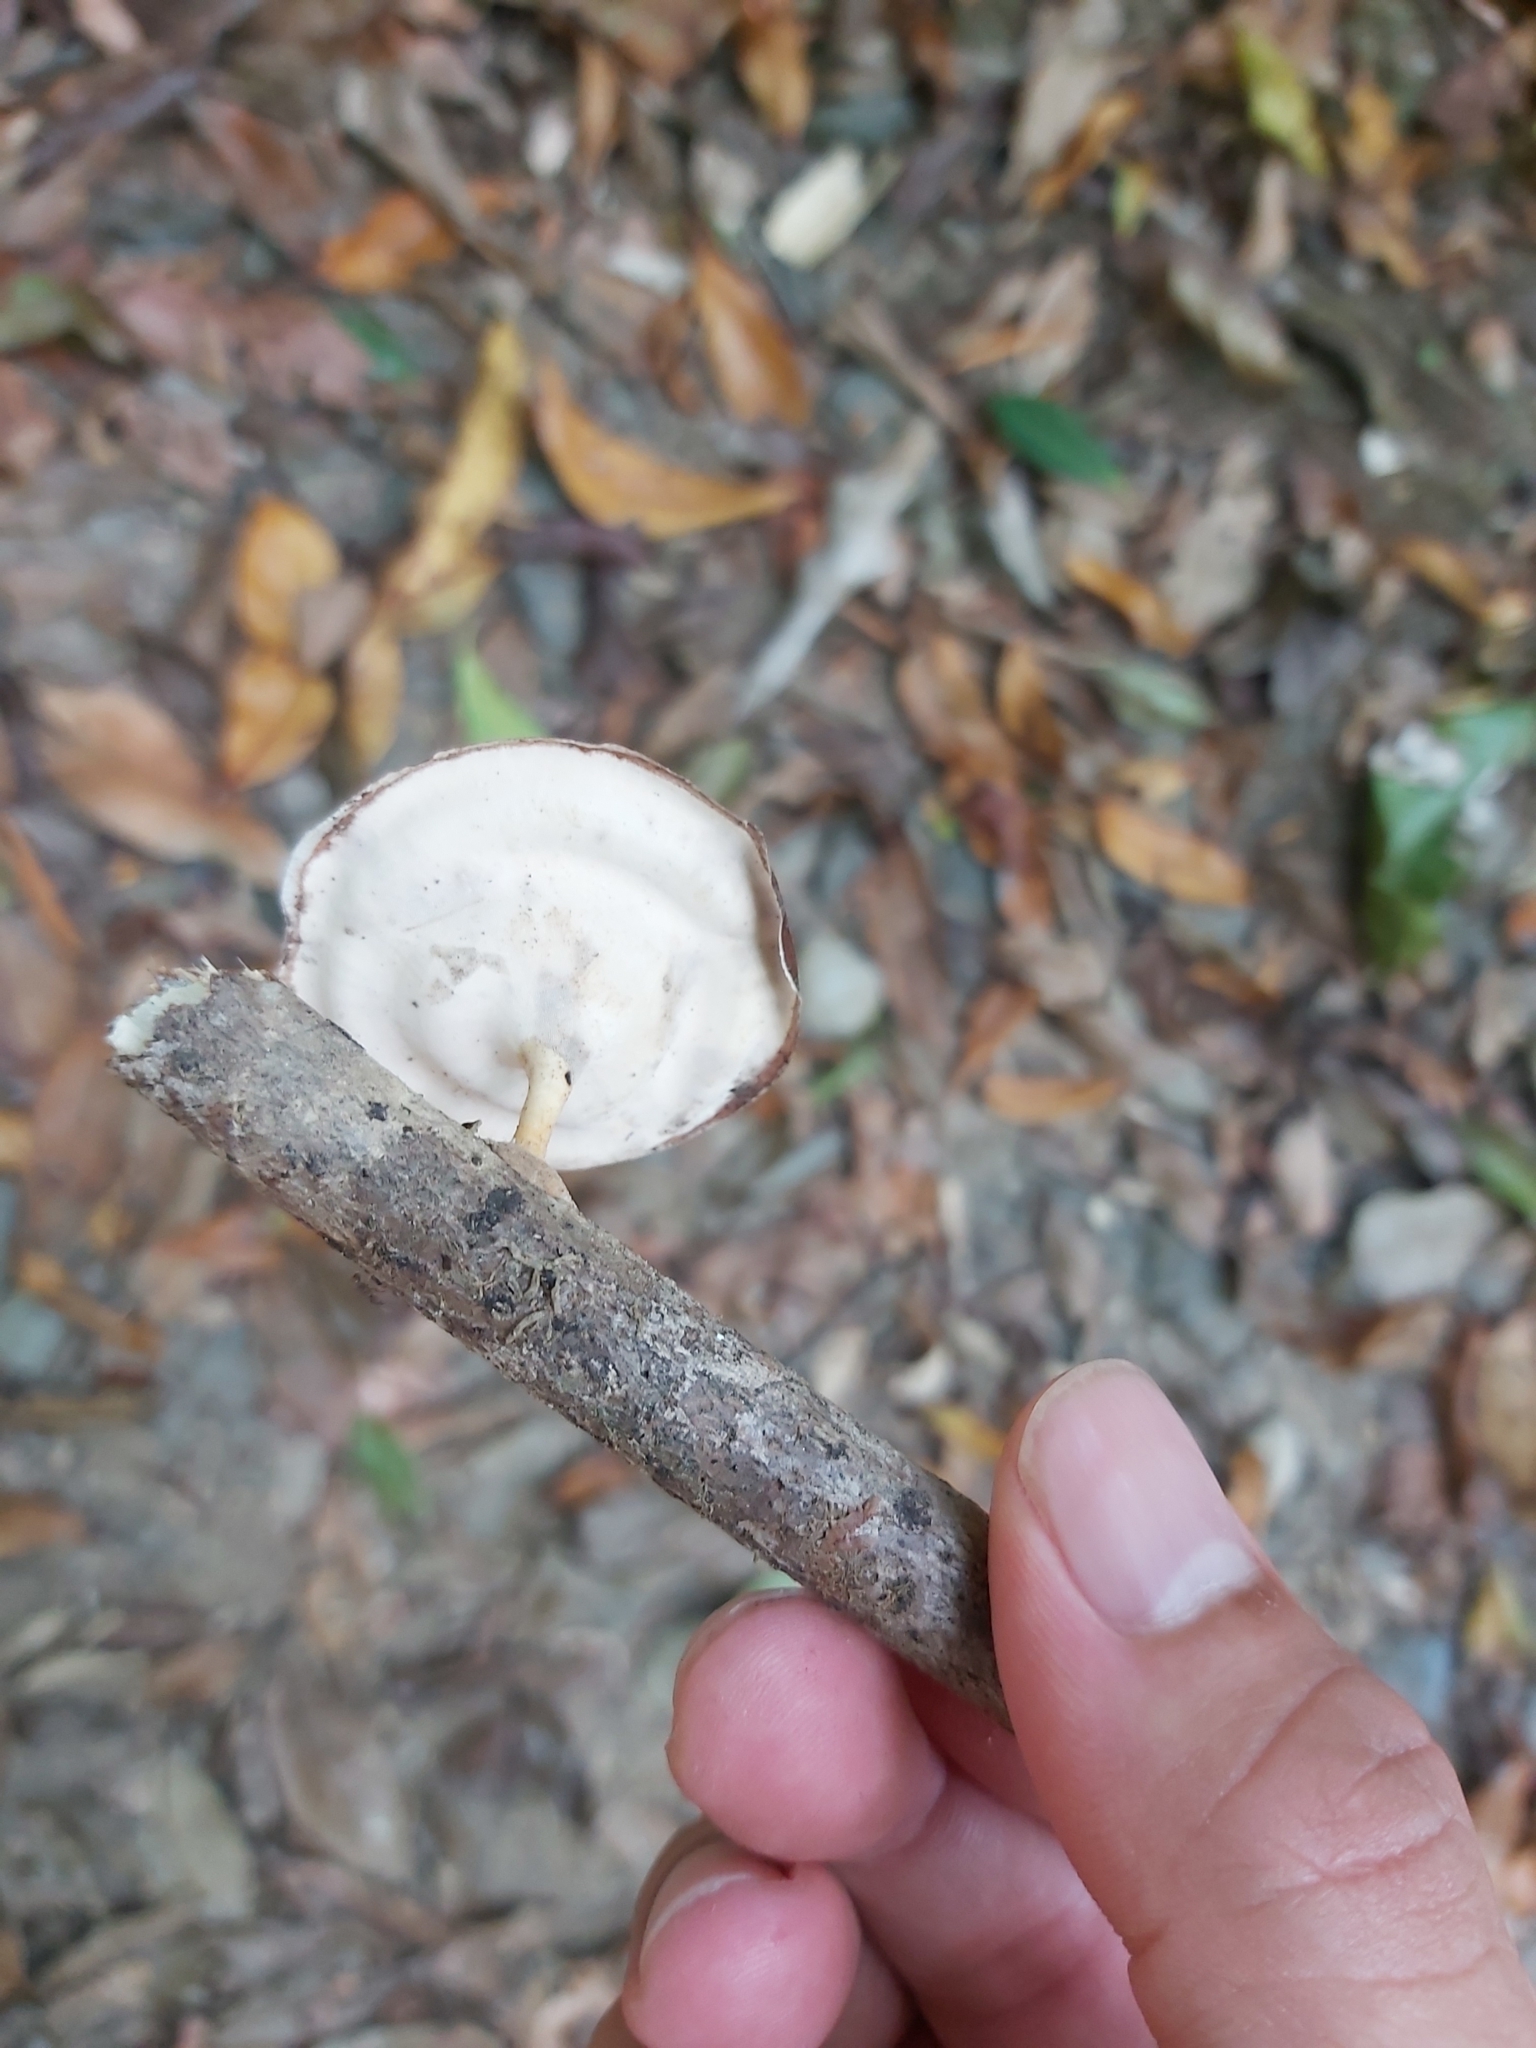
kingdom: Fungi
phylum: Basidiomycota
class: Agaricomycetes
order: Polyporales
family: Polyporaceae
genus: Microporus
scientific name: Microporus xanthopus
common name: Yellow-stemmed micropore
